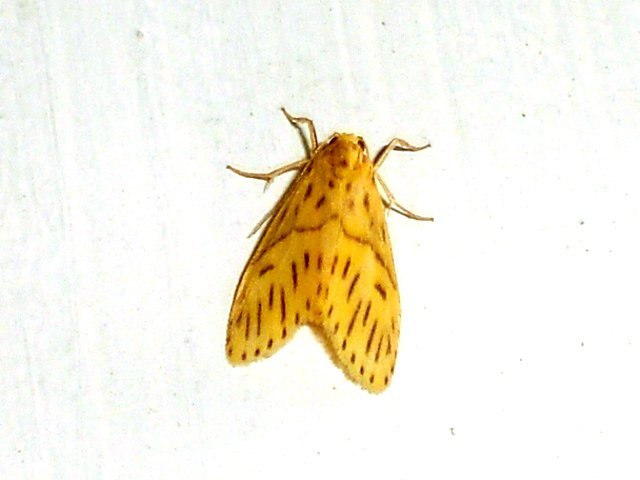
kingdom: Animalia
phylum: Arthropoda
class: Insecta
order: Lepidoptera
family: Erebidae
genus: Miltochrista
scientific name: Miltochrista strigipennis
